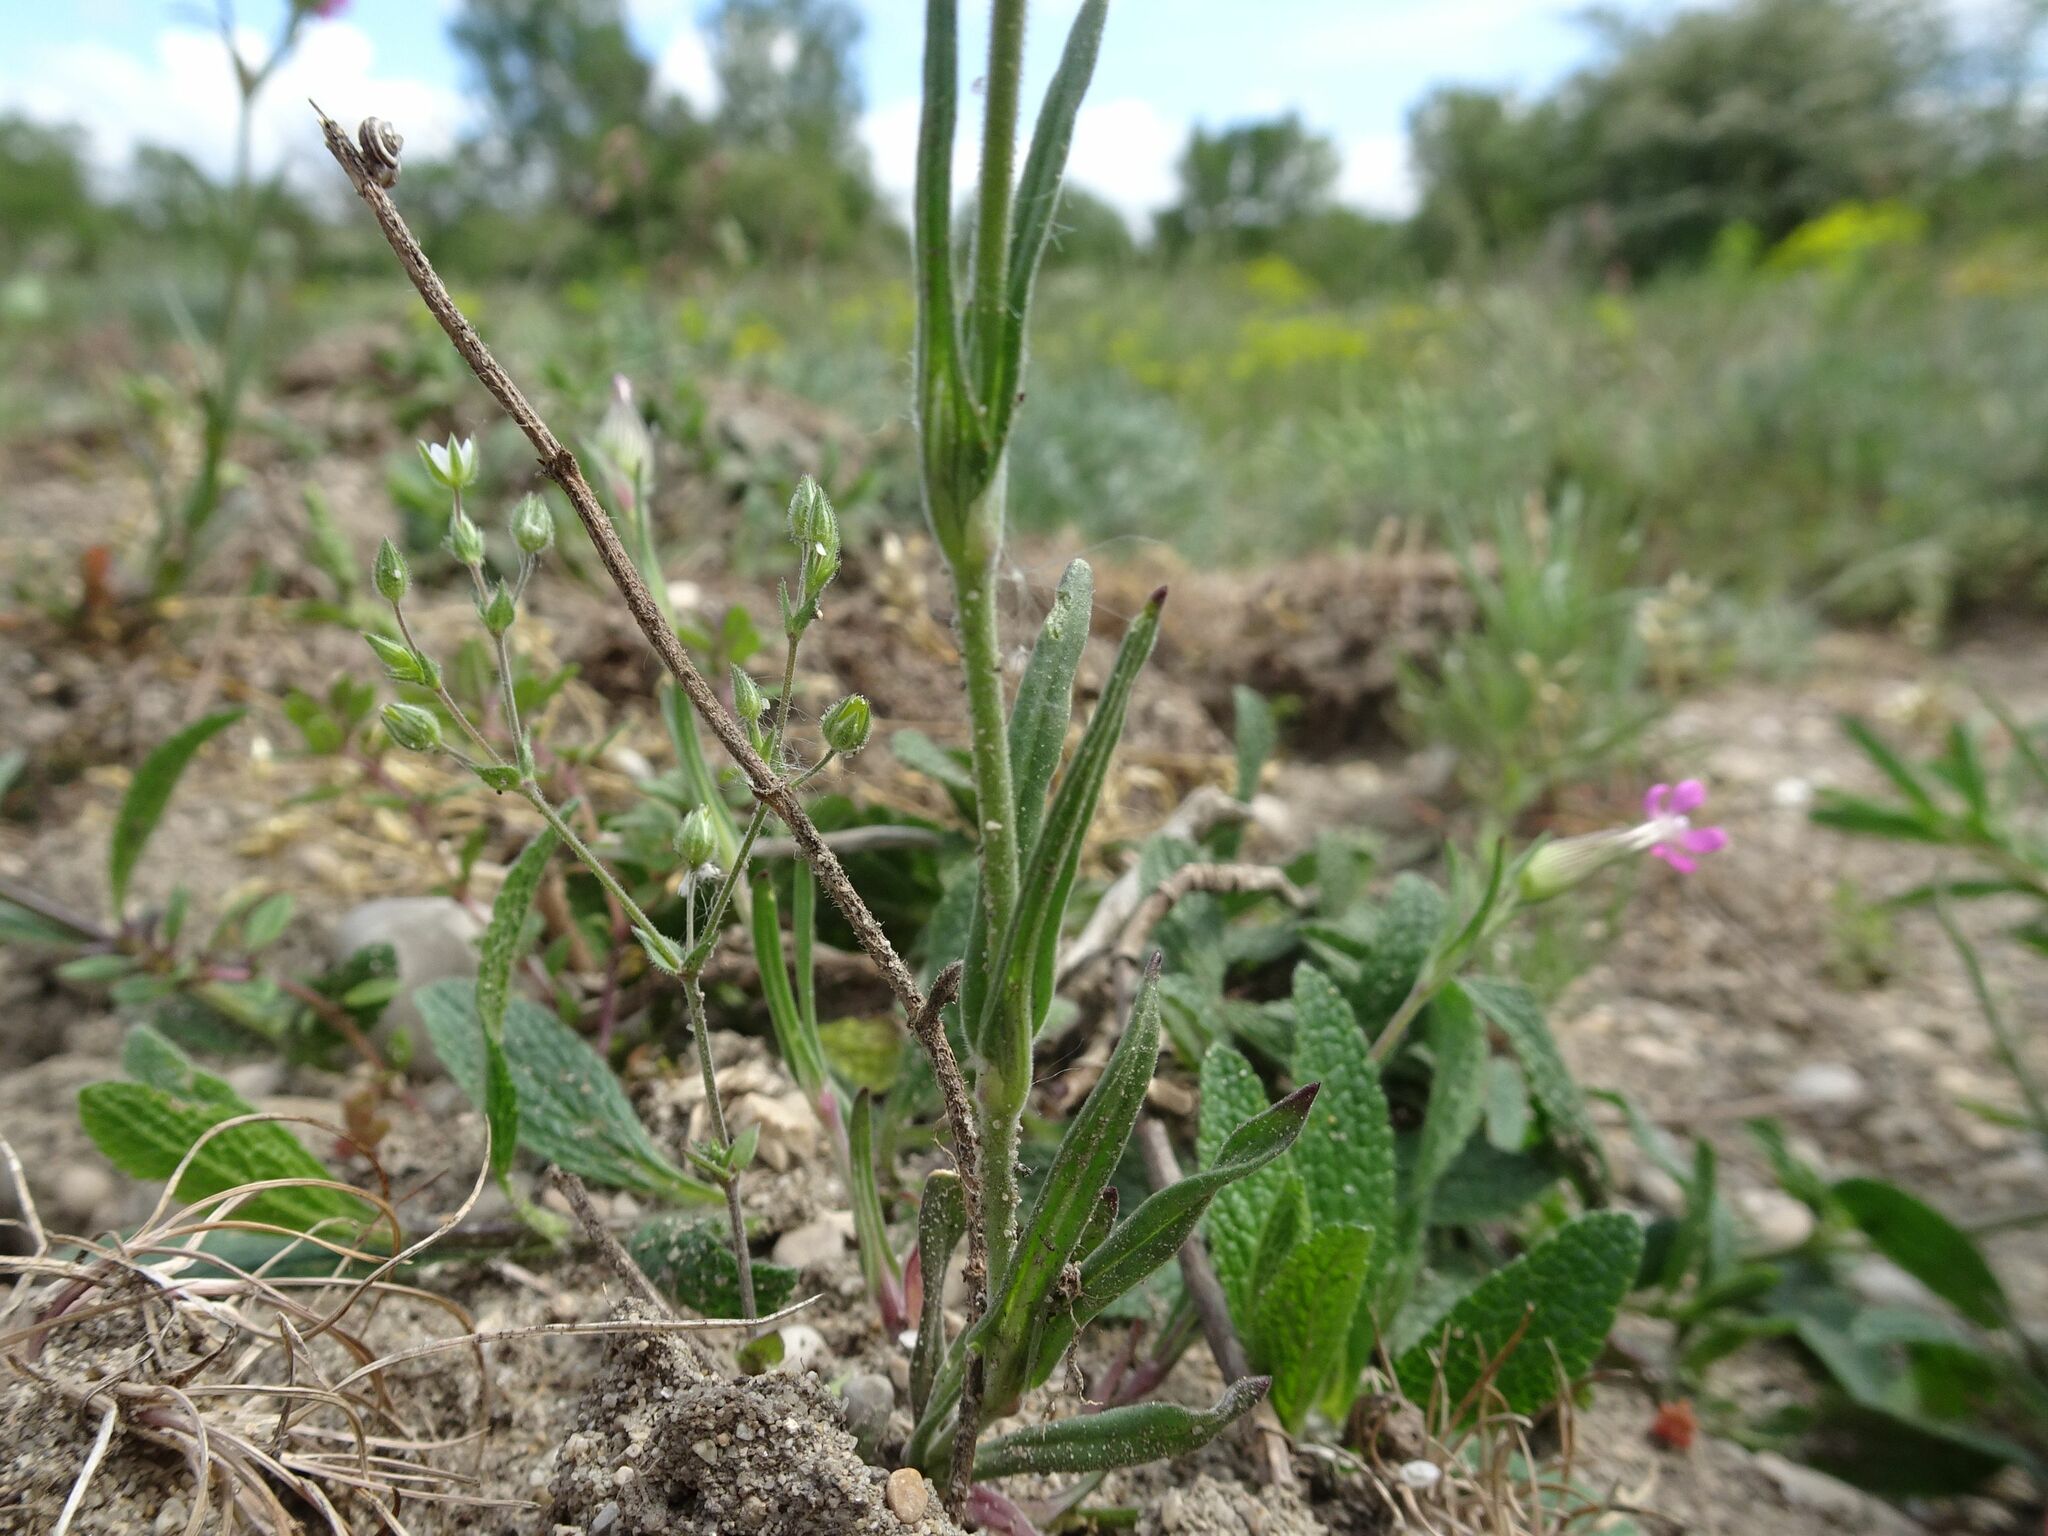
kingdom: Plantae
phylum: Tracheophyta
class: Magnoliopsida
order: Caryophyllales
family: Caryophyllaceae
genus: Silene
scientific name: Silene conica
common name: Sand catchfly
